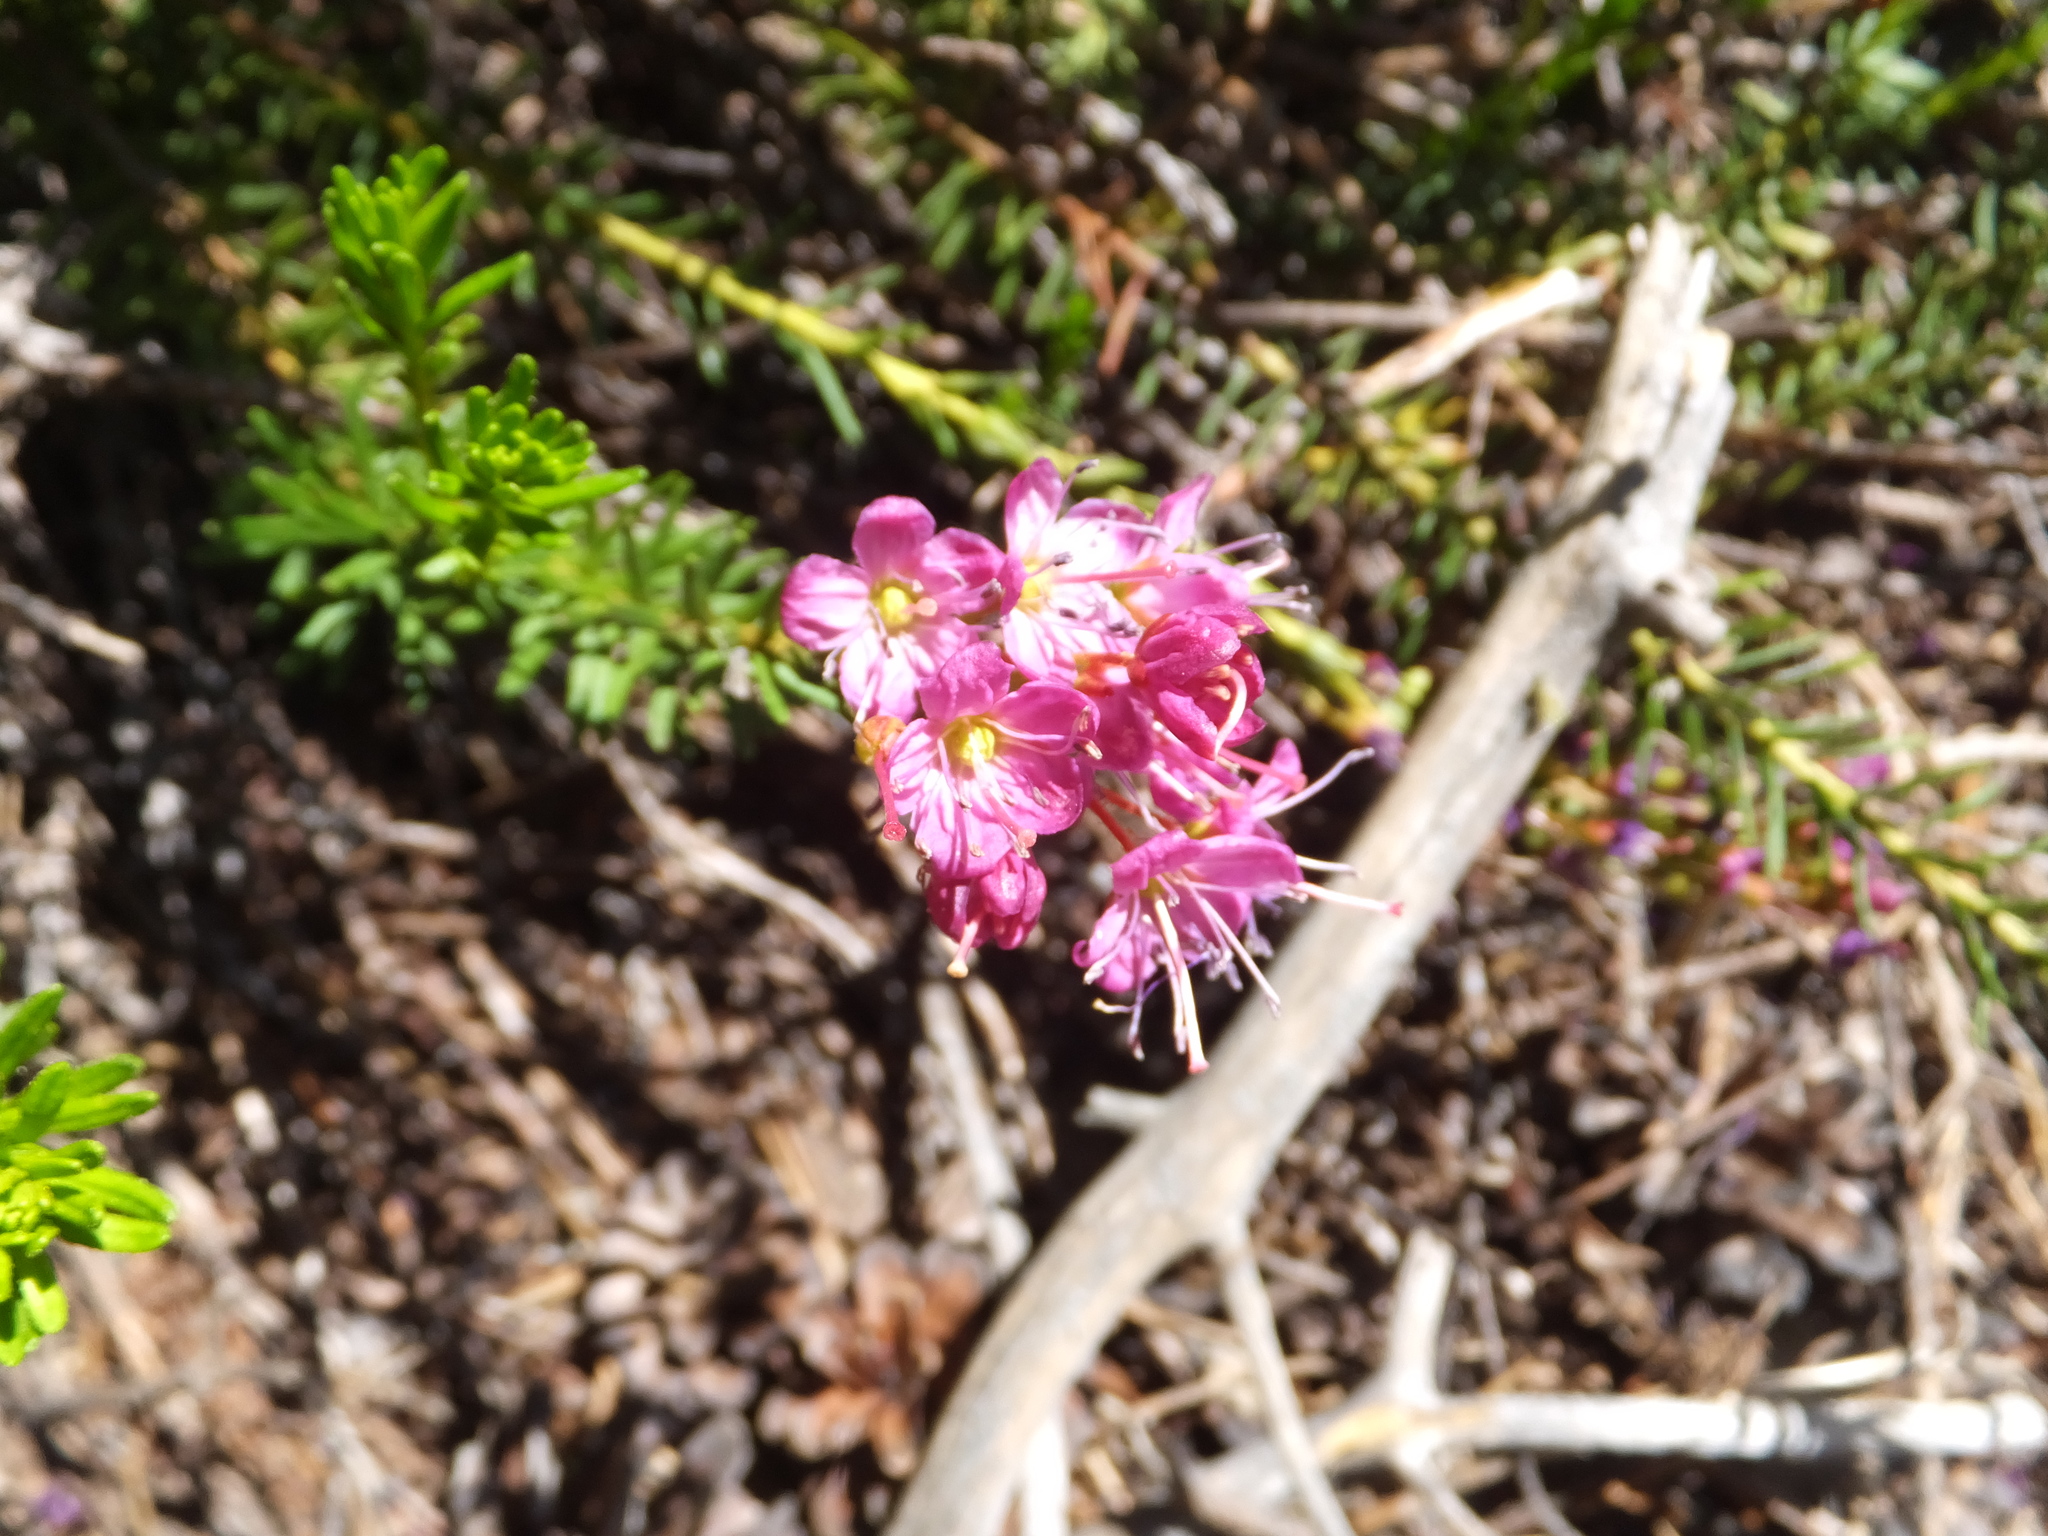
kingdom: Plantae
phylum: Tracheophyta
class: Magnoliopsida
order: Ericales
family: Ericaceae
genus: Phyllodoce
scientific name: Phyllodoce breweri
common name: Brewer's mountain-heather
